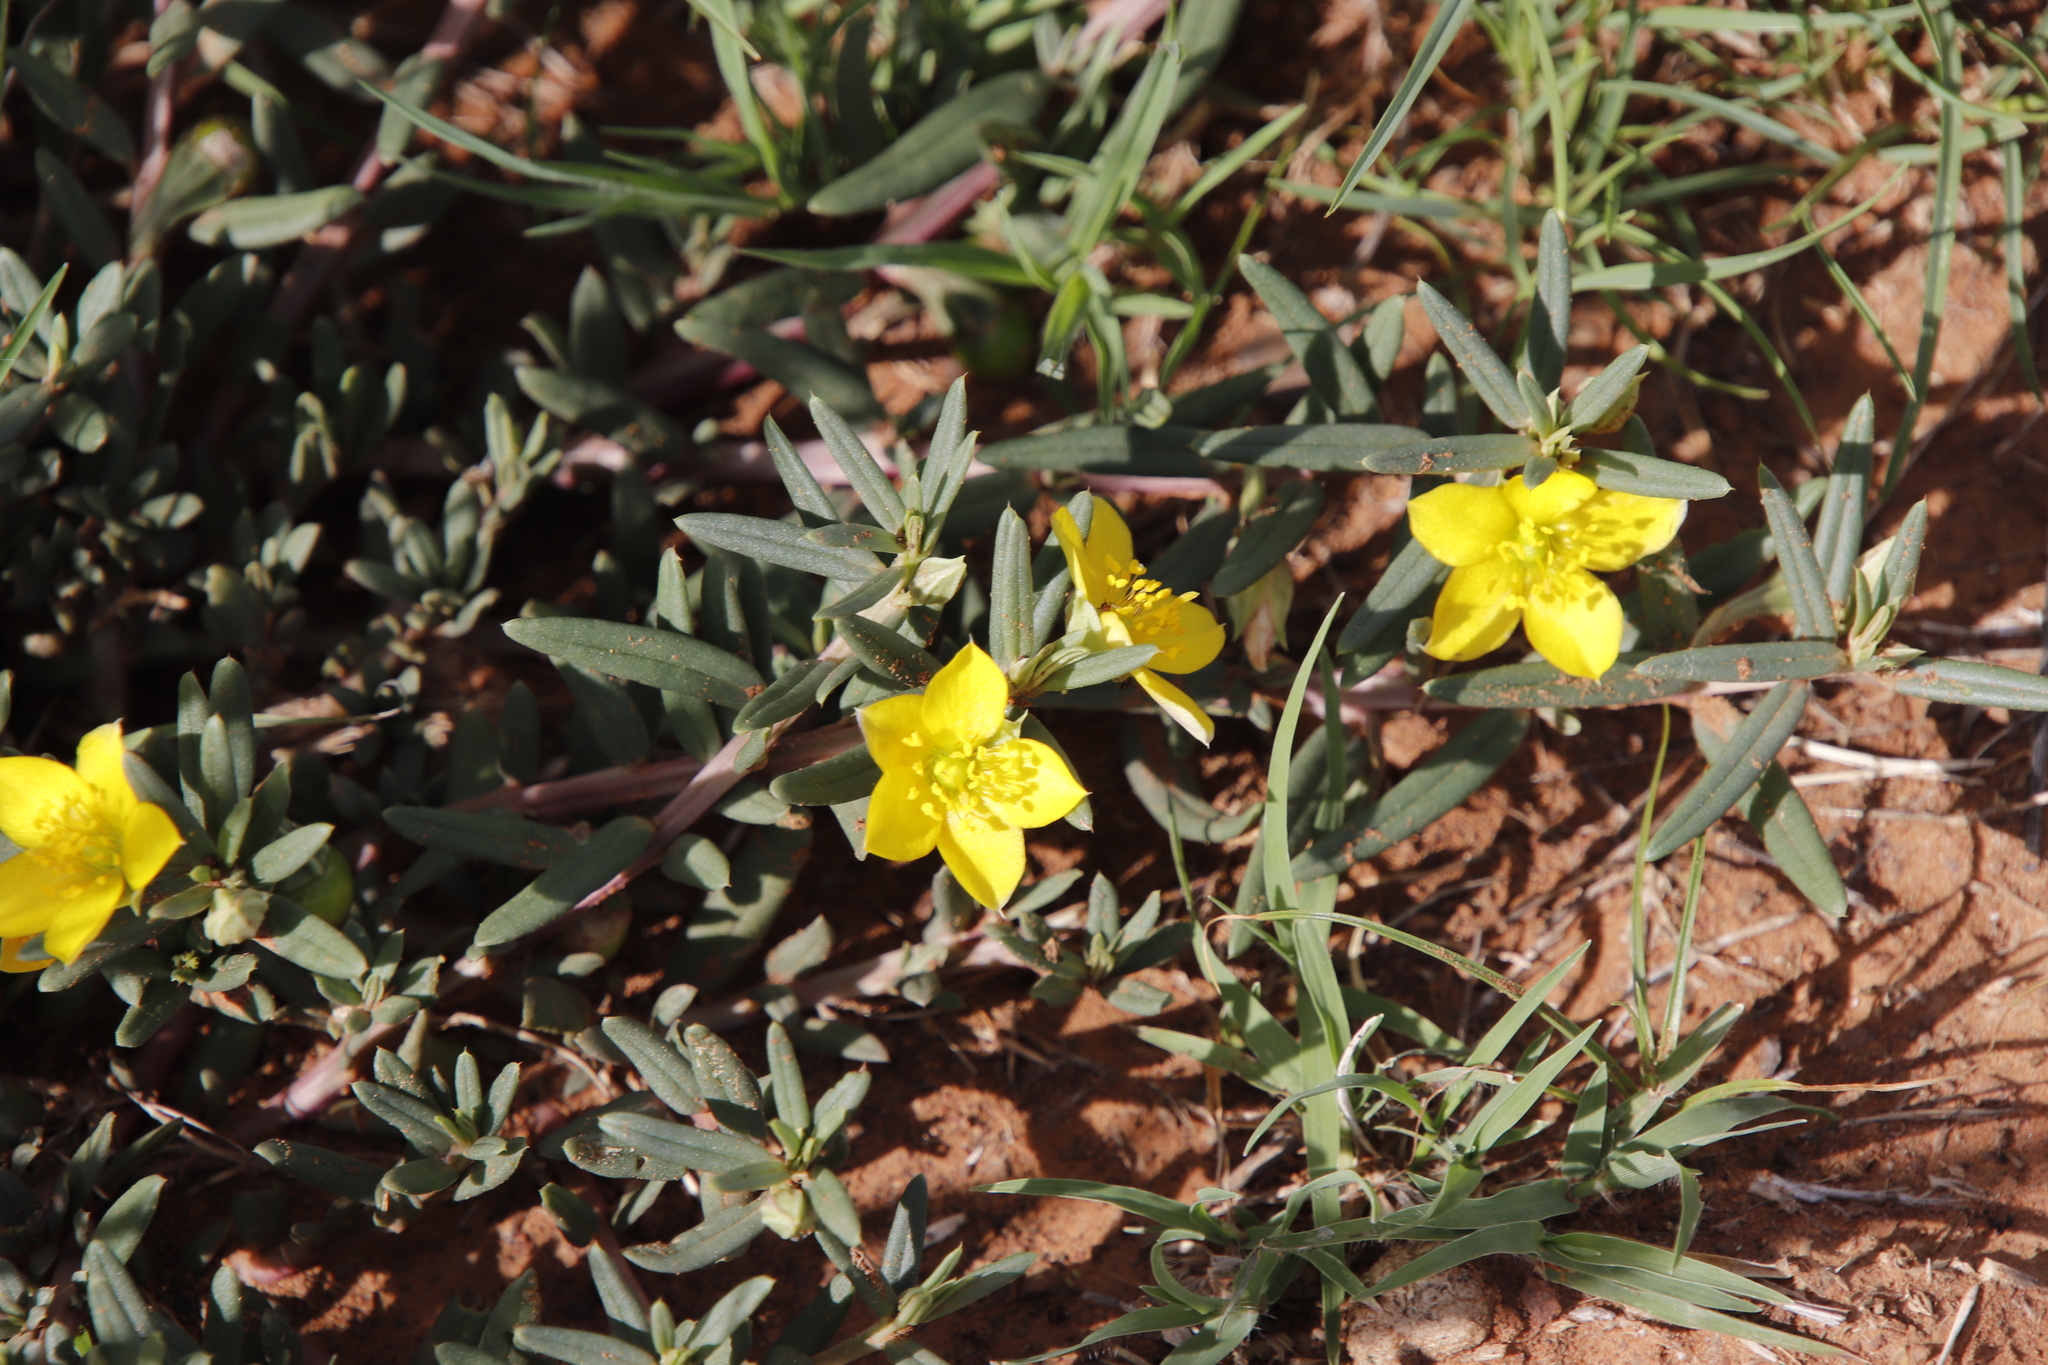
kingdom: Plantae
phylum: Tracheophyta
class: Magnoliopsida
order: Caryophyllales
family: Talinaceae
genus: Talinum
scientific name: Talinum caffrum
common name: Flameflower
